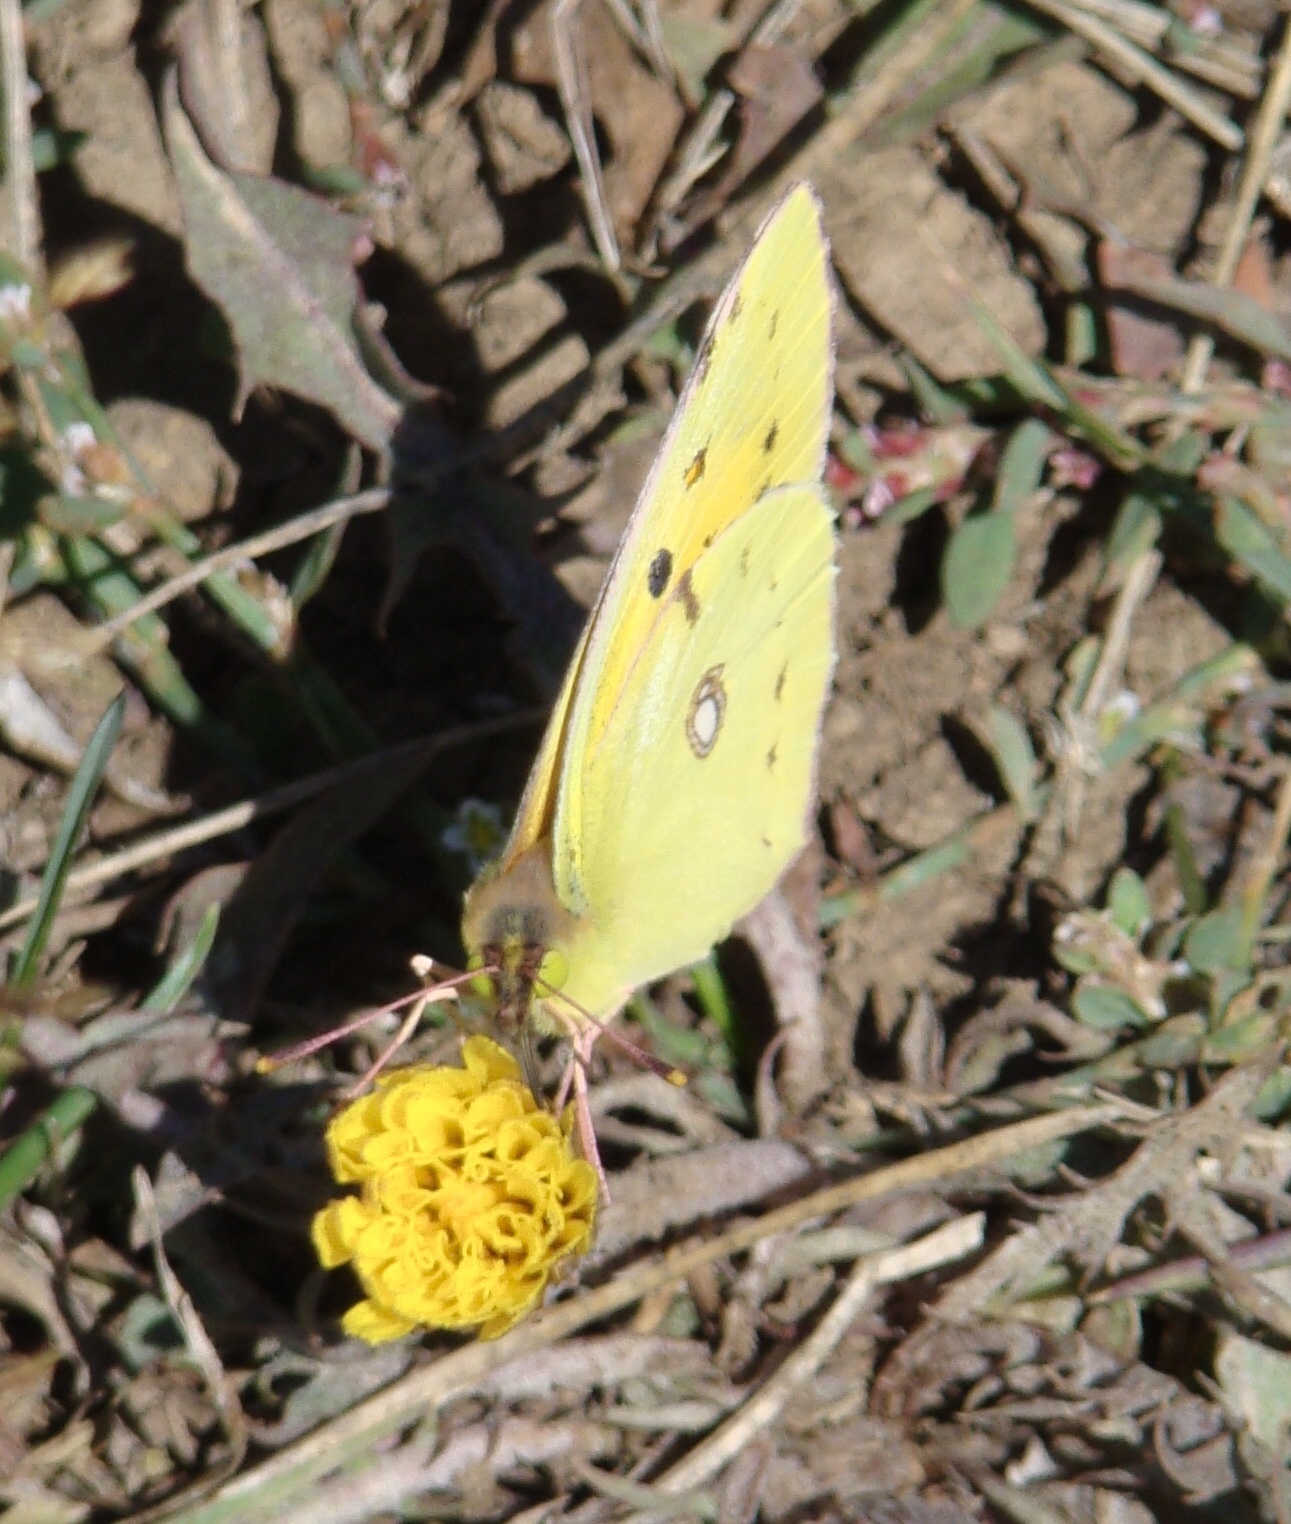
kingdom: Animalia
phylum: Arthropoda
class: Insecta
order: Lepidoptera
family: Pieridae
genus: Colias
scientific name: Colias croceus
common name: Clouded yellow
